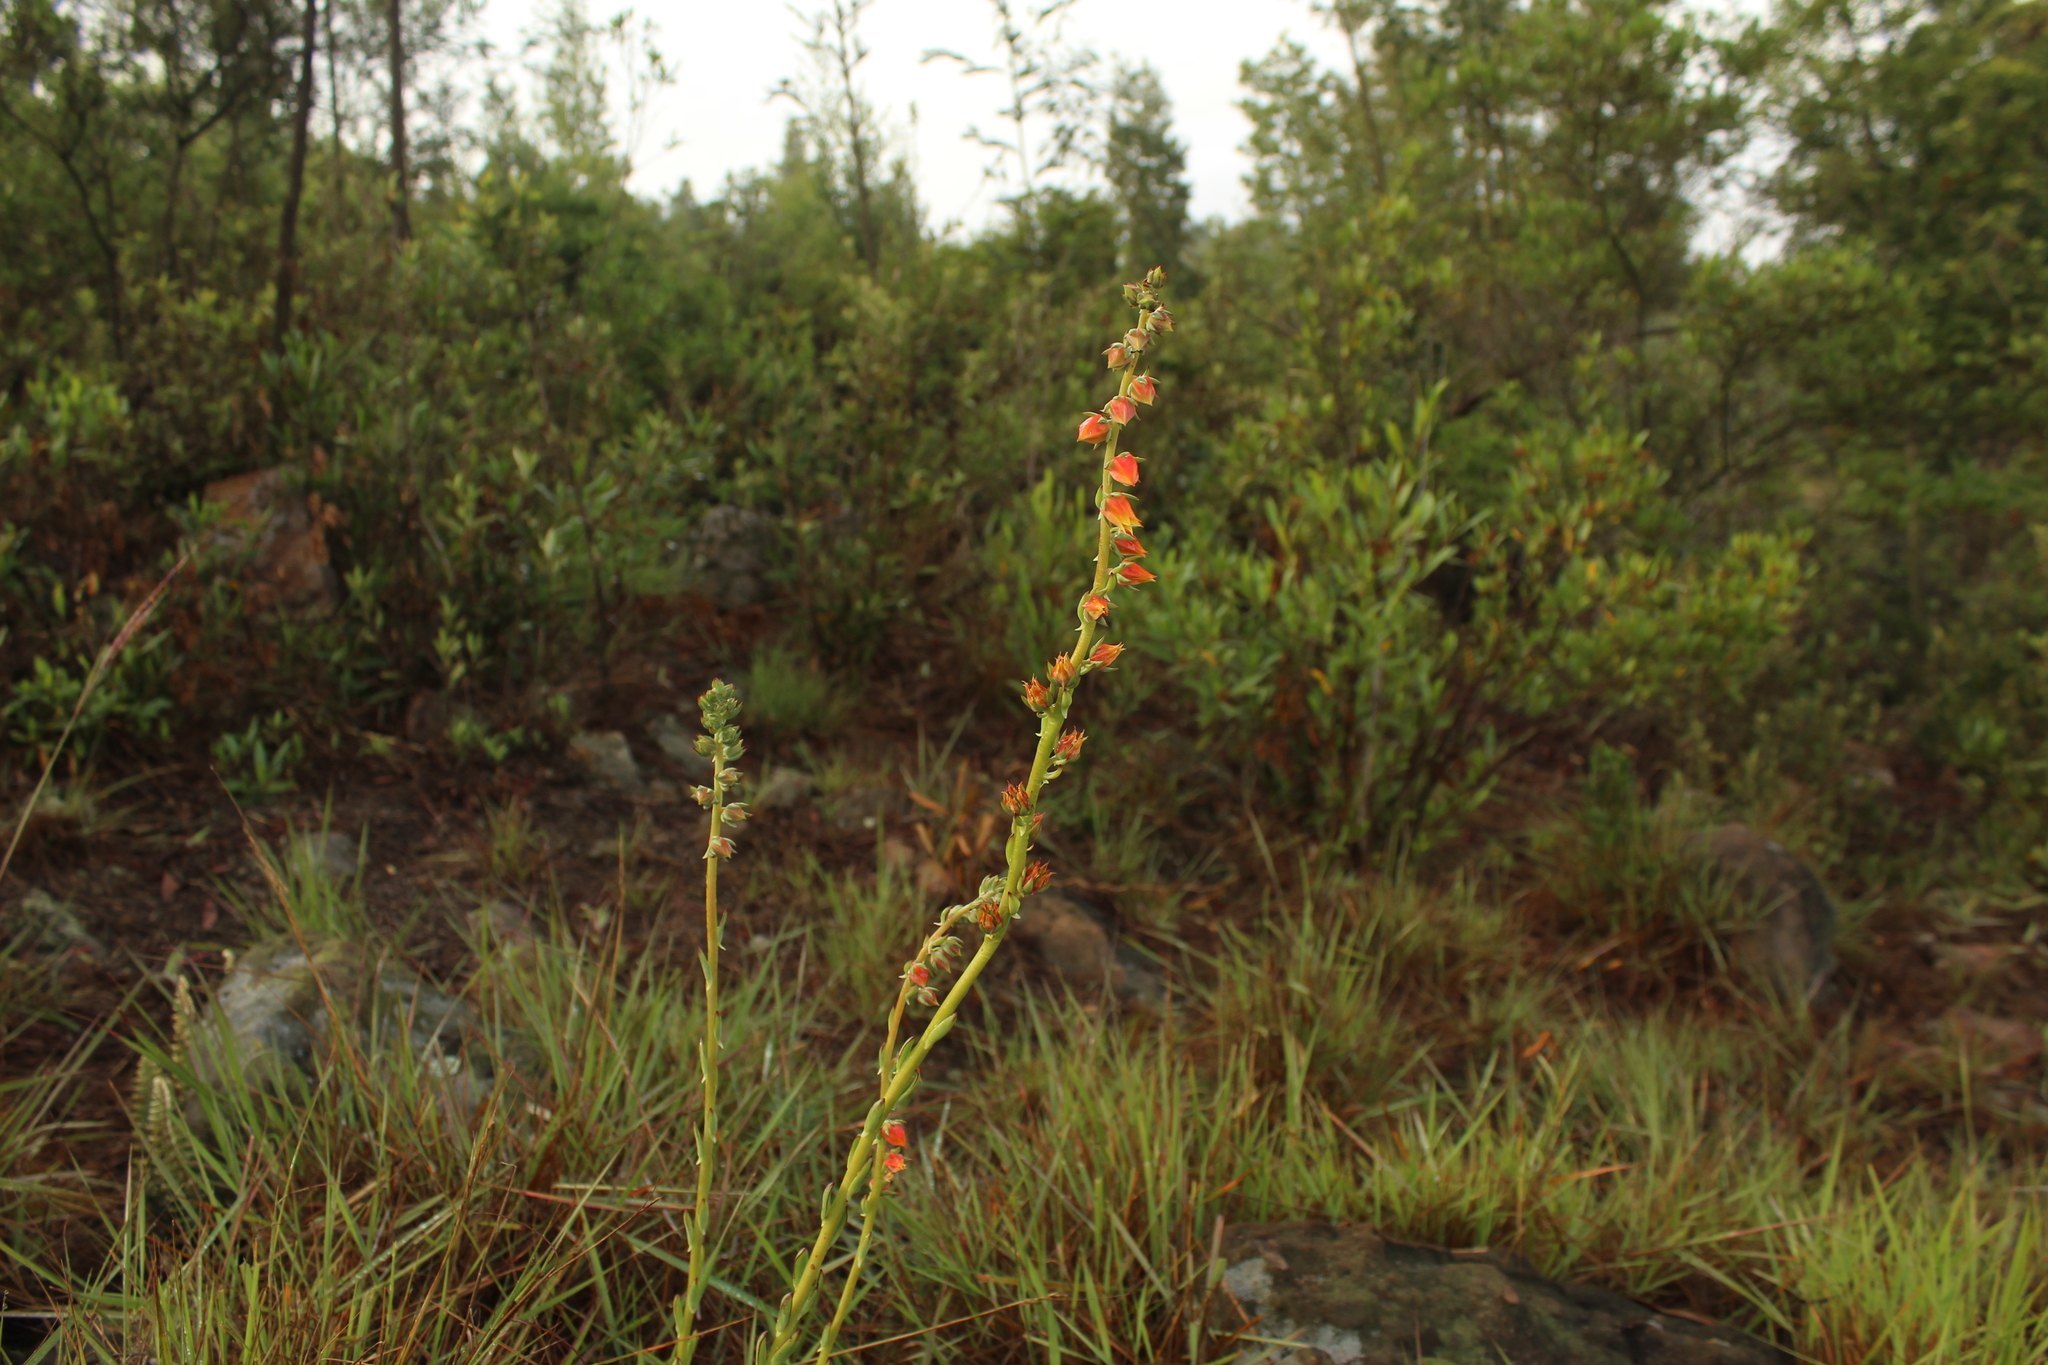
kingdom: Plantae
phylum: Tracheophyta
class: Magnoliopsida
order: Saxifragales
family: Crassulaceae
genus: Echeveria
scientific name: Echeveria bicolor
